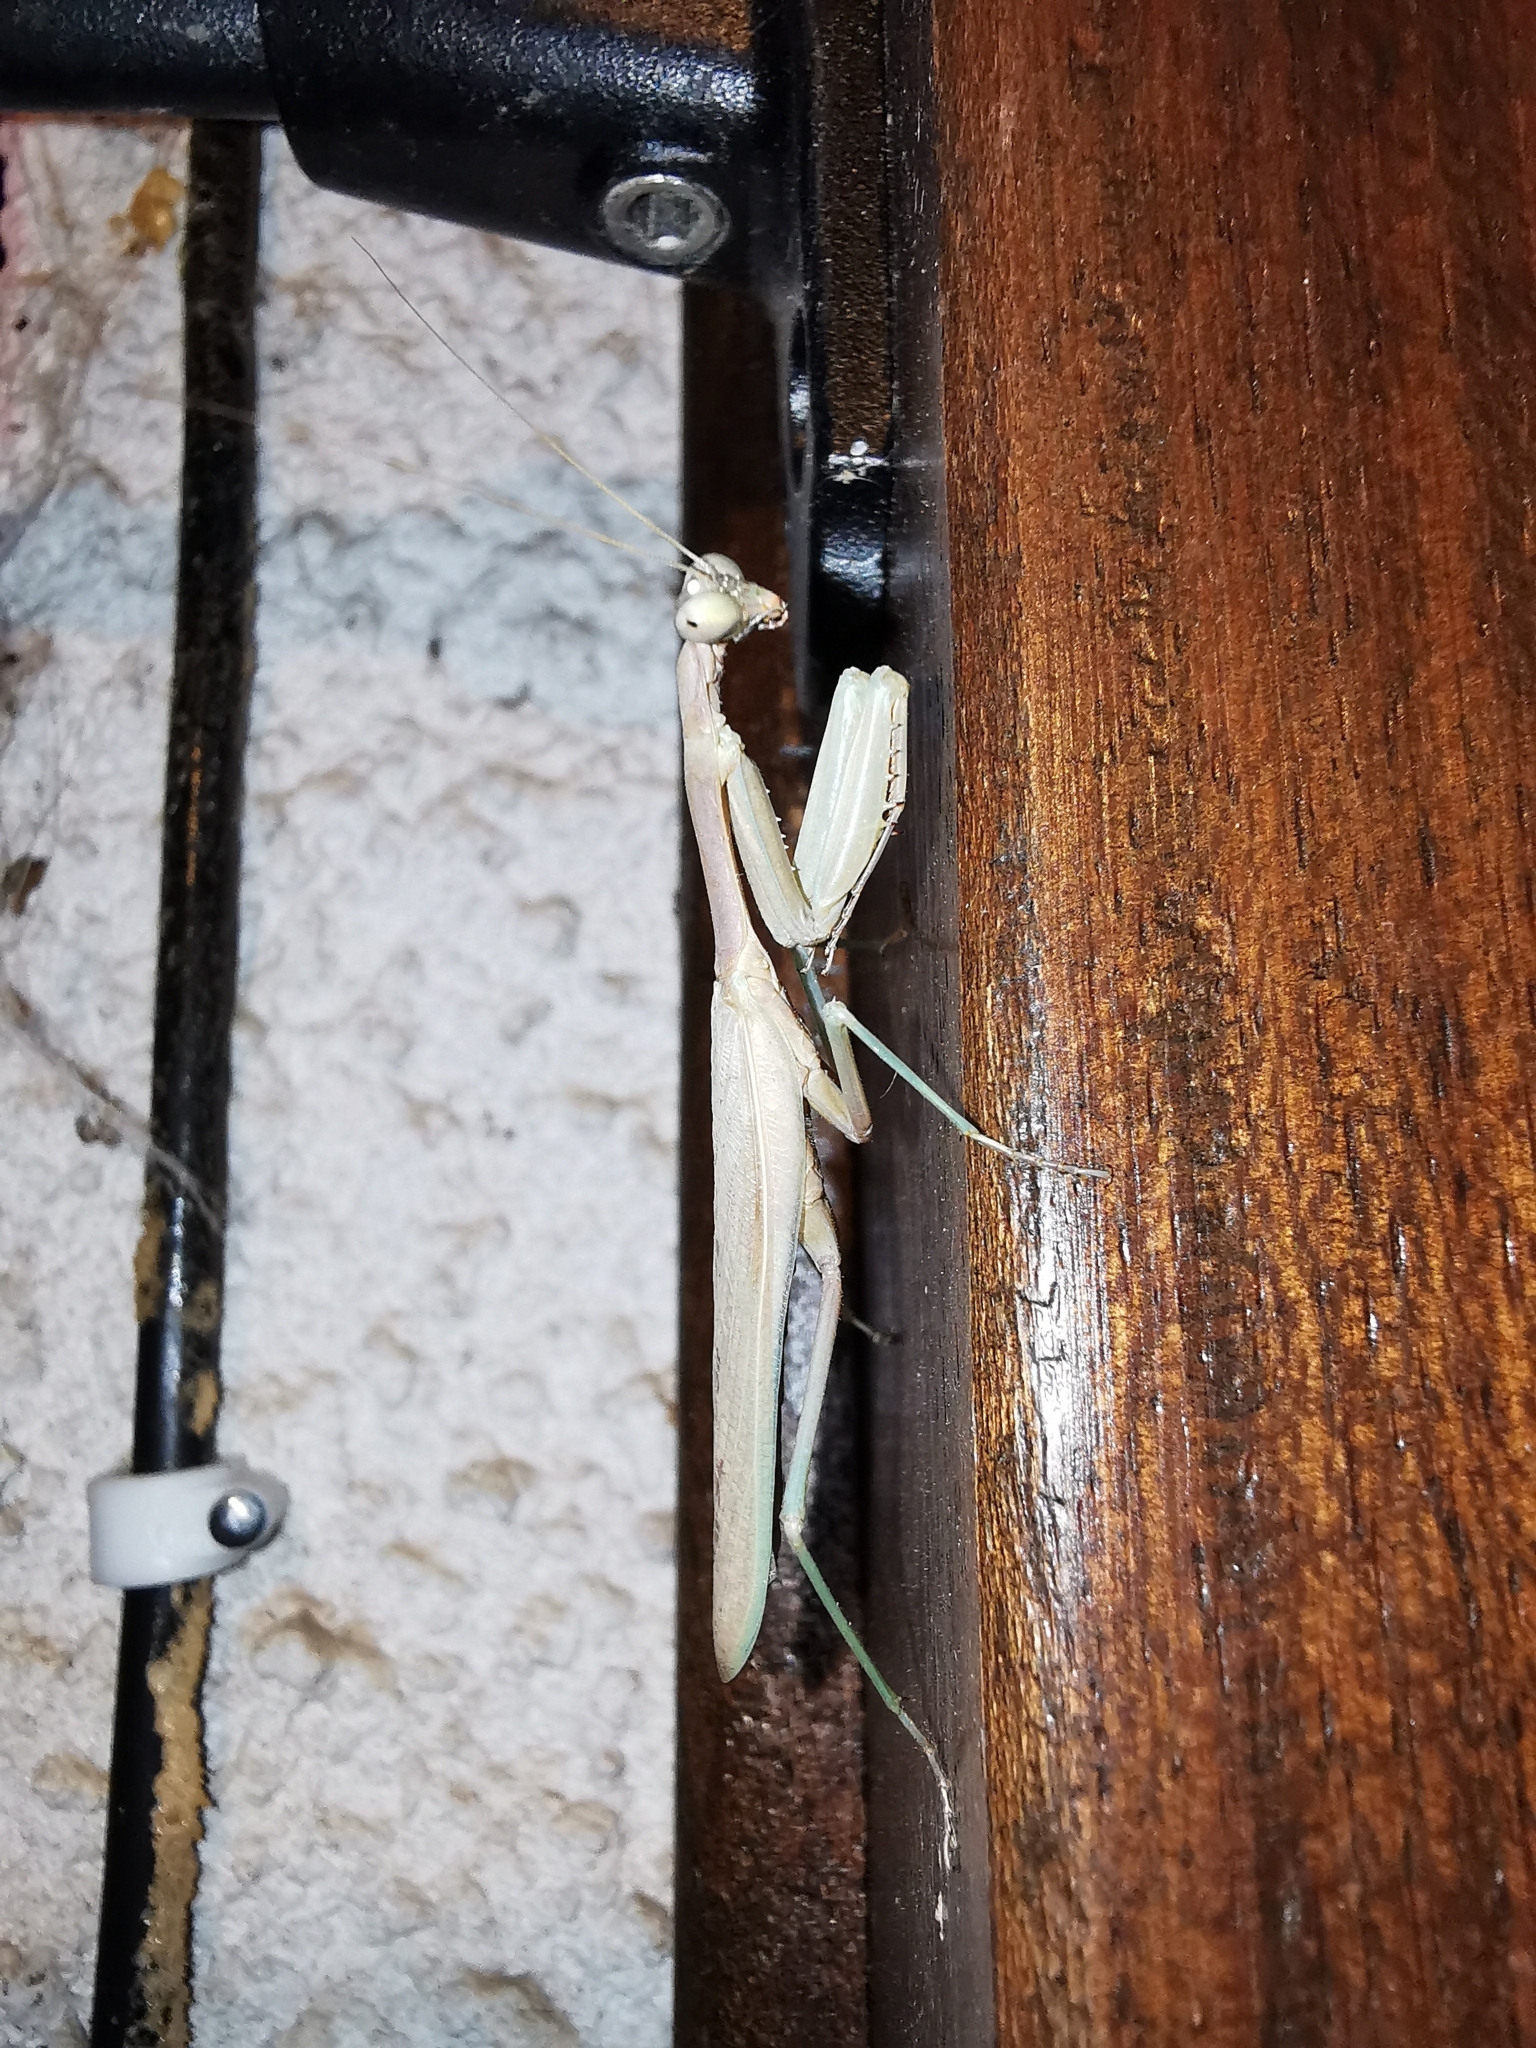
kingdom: Animalia
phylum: Arthropoda
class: Insecta
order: Mantodea
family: Eremiaphilidae
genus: Iris
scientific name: Iris oratoria
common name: Mediterranean mantis
